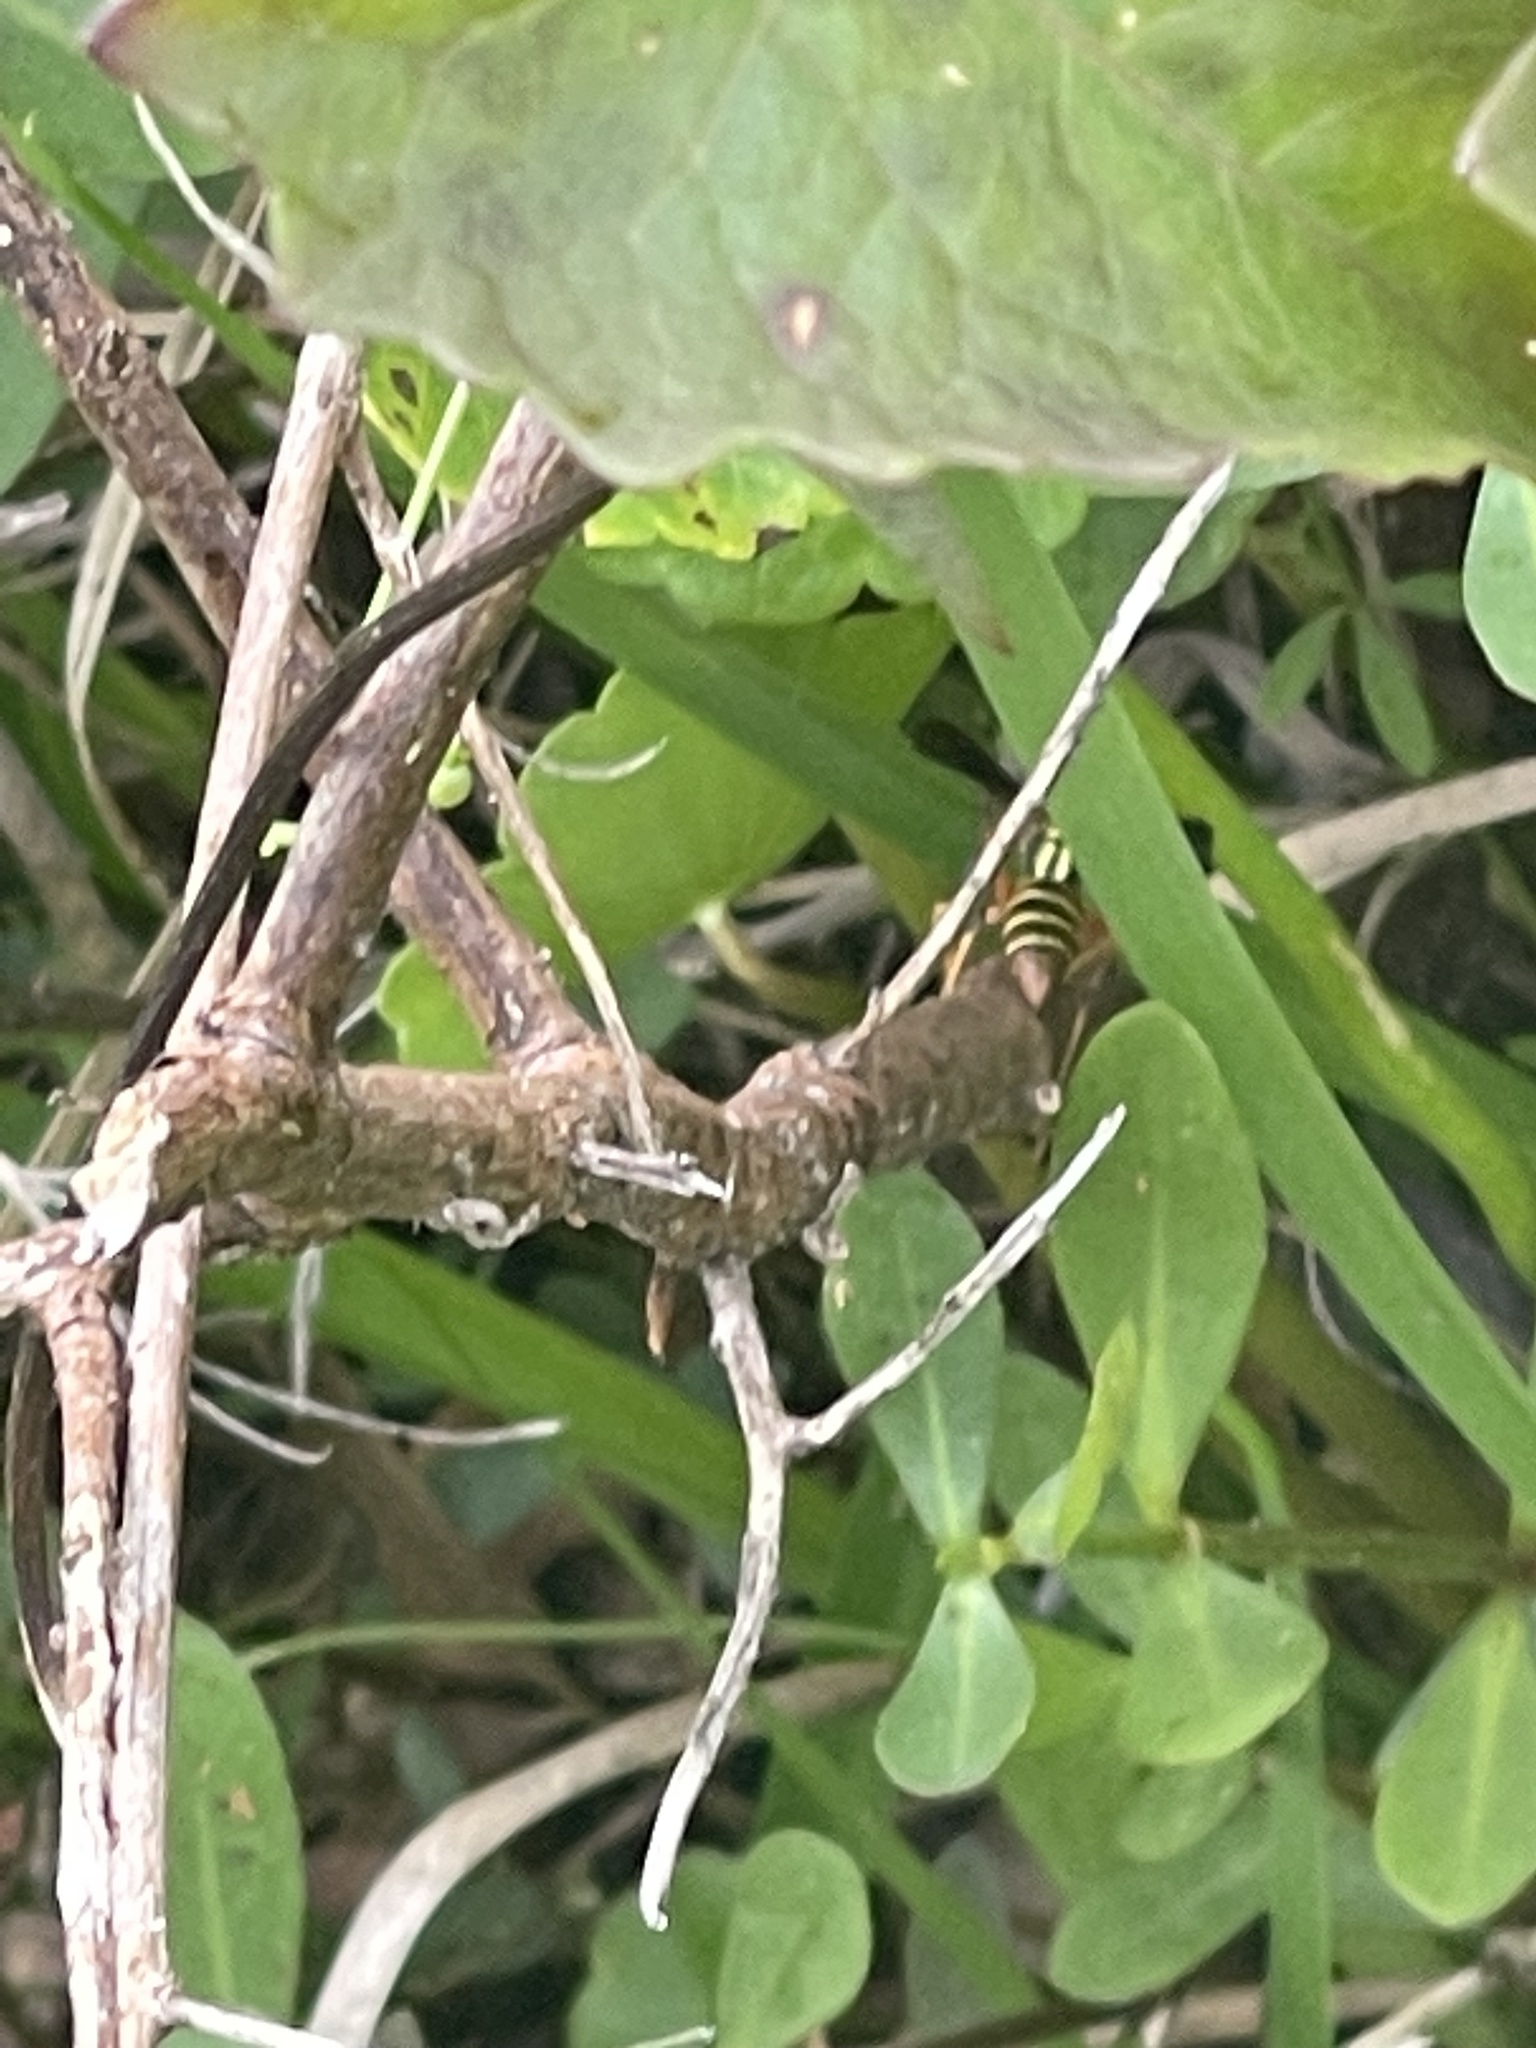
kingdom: Animalia
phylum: Arthropoda
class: Insecta
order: Hymenoptera
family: Eumenidae
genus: Polistes
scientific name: Polistes dorsalis
